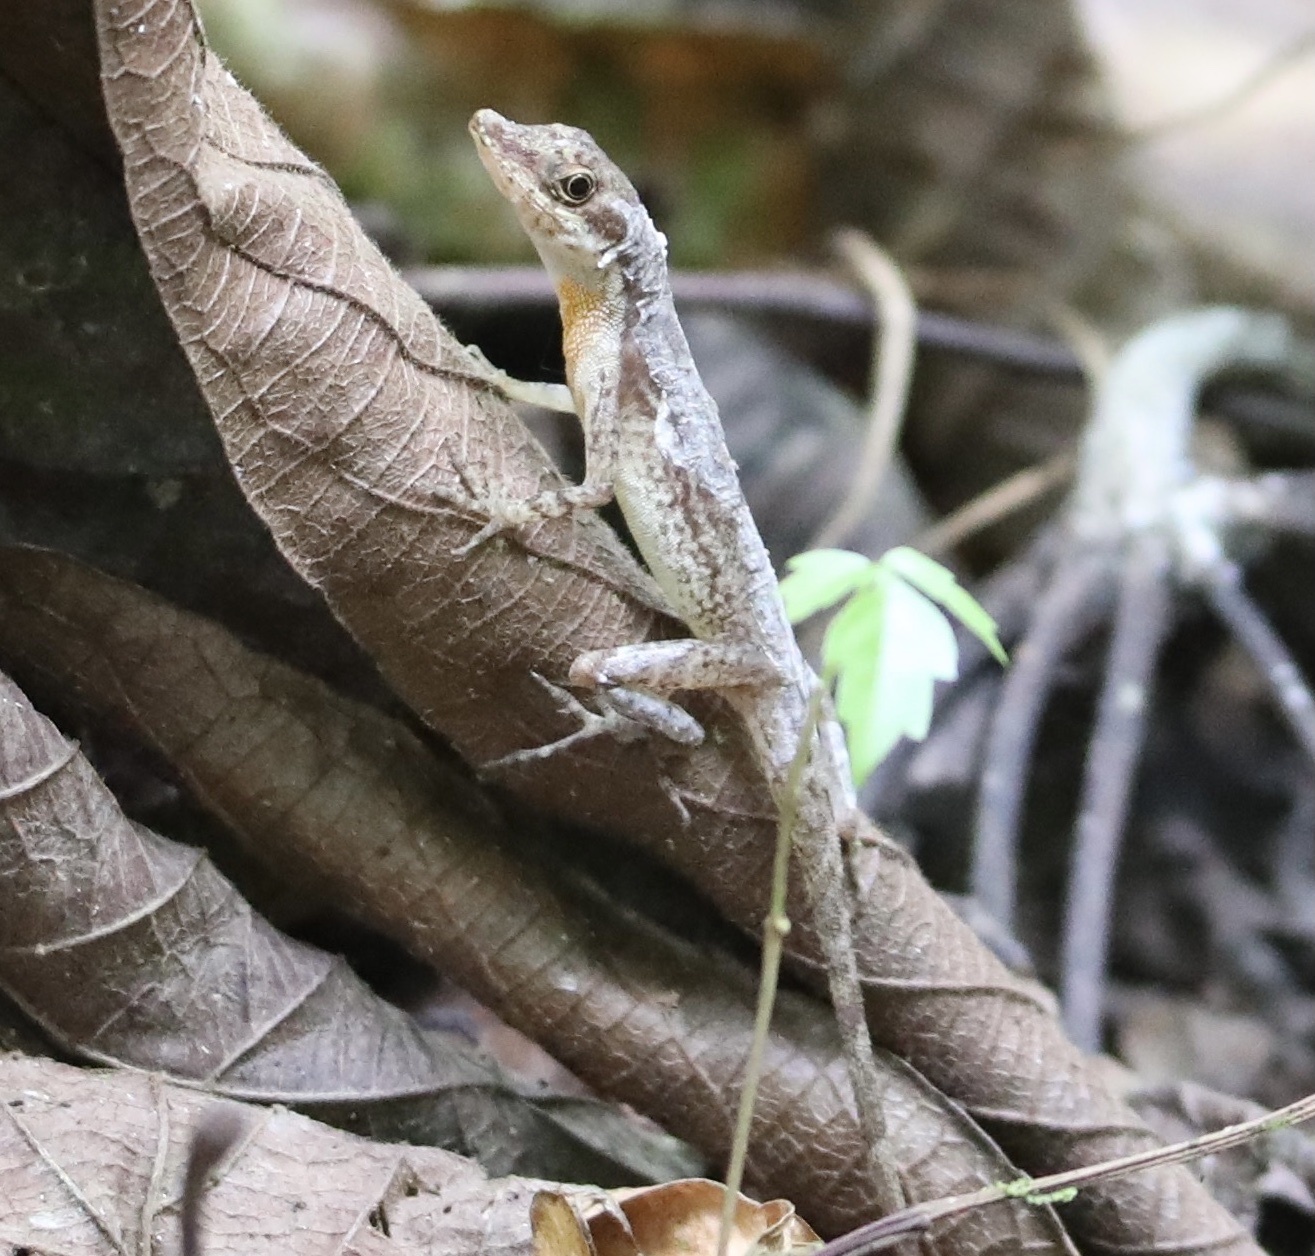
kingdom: Animalia
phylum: Chordata
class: Squamata
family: Dactyloidae
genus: Anolis
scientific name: Anolis apletophallus
